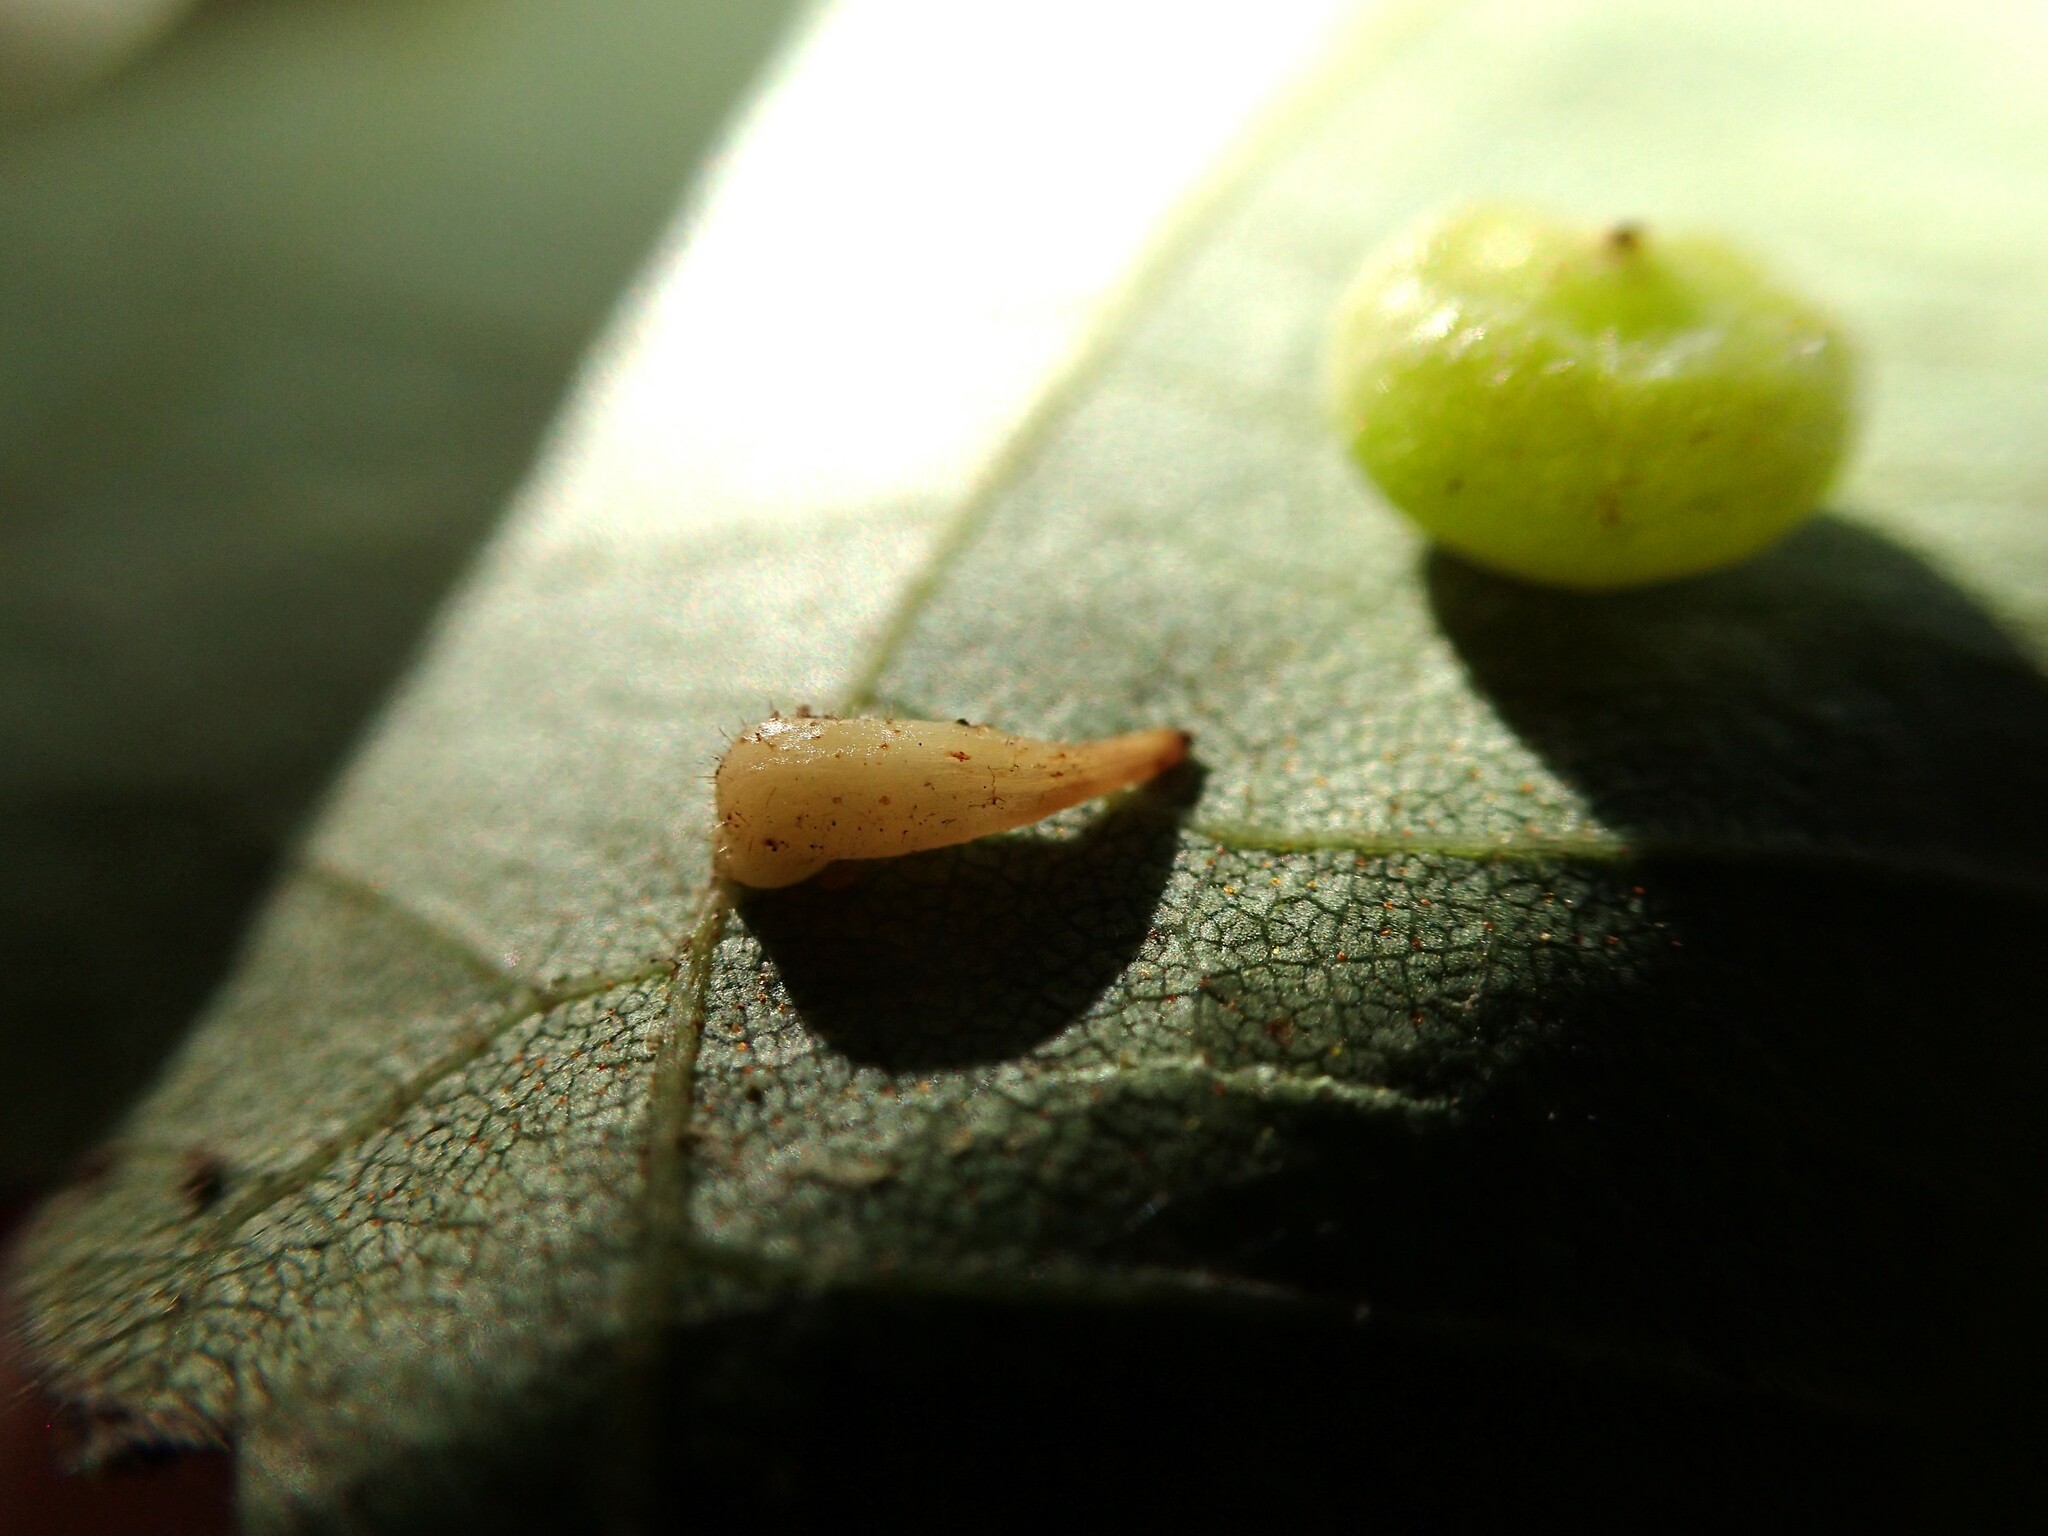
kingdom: Animalia
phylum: Arthropoda
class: Insecta
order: Diptera
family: Cecidomyiidae
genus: Caryomyia
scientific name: Caryomyia
